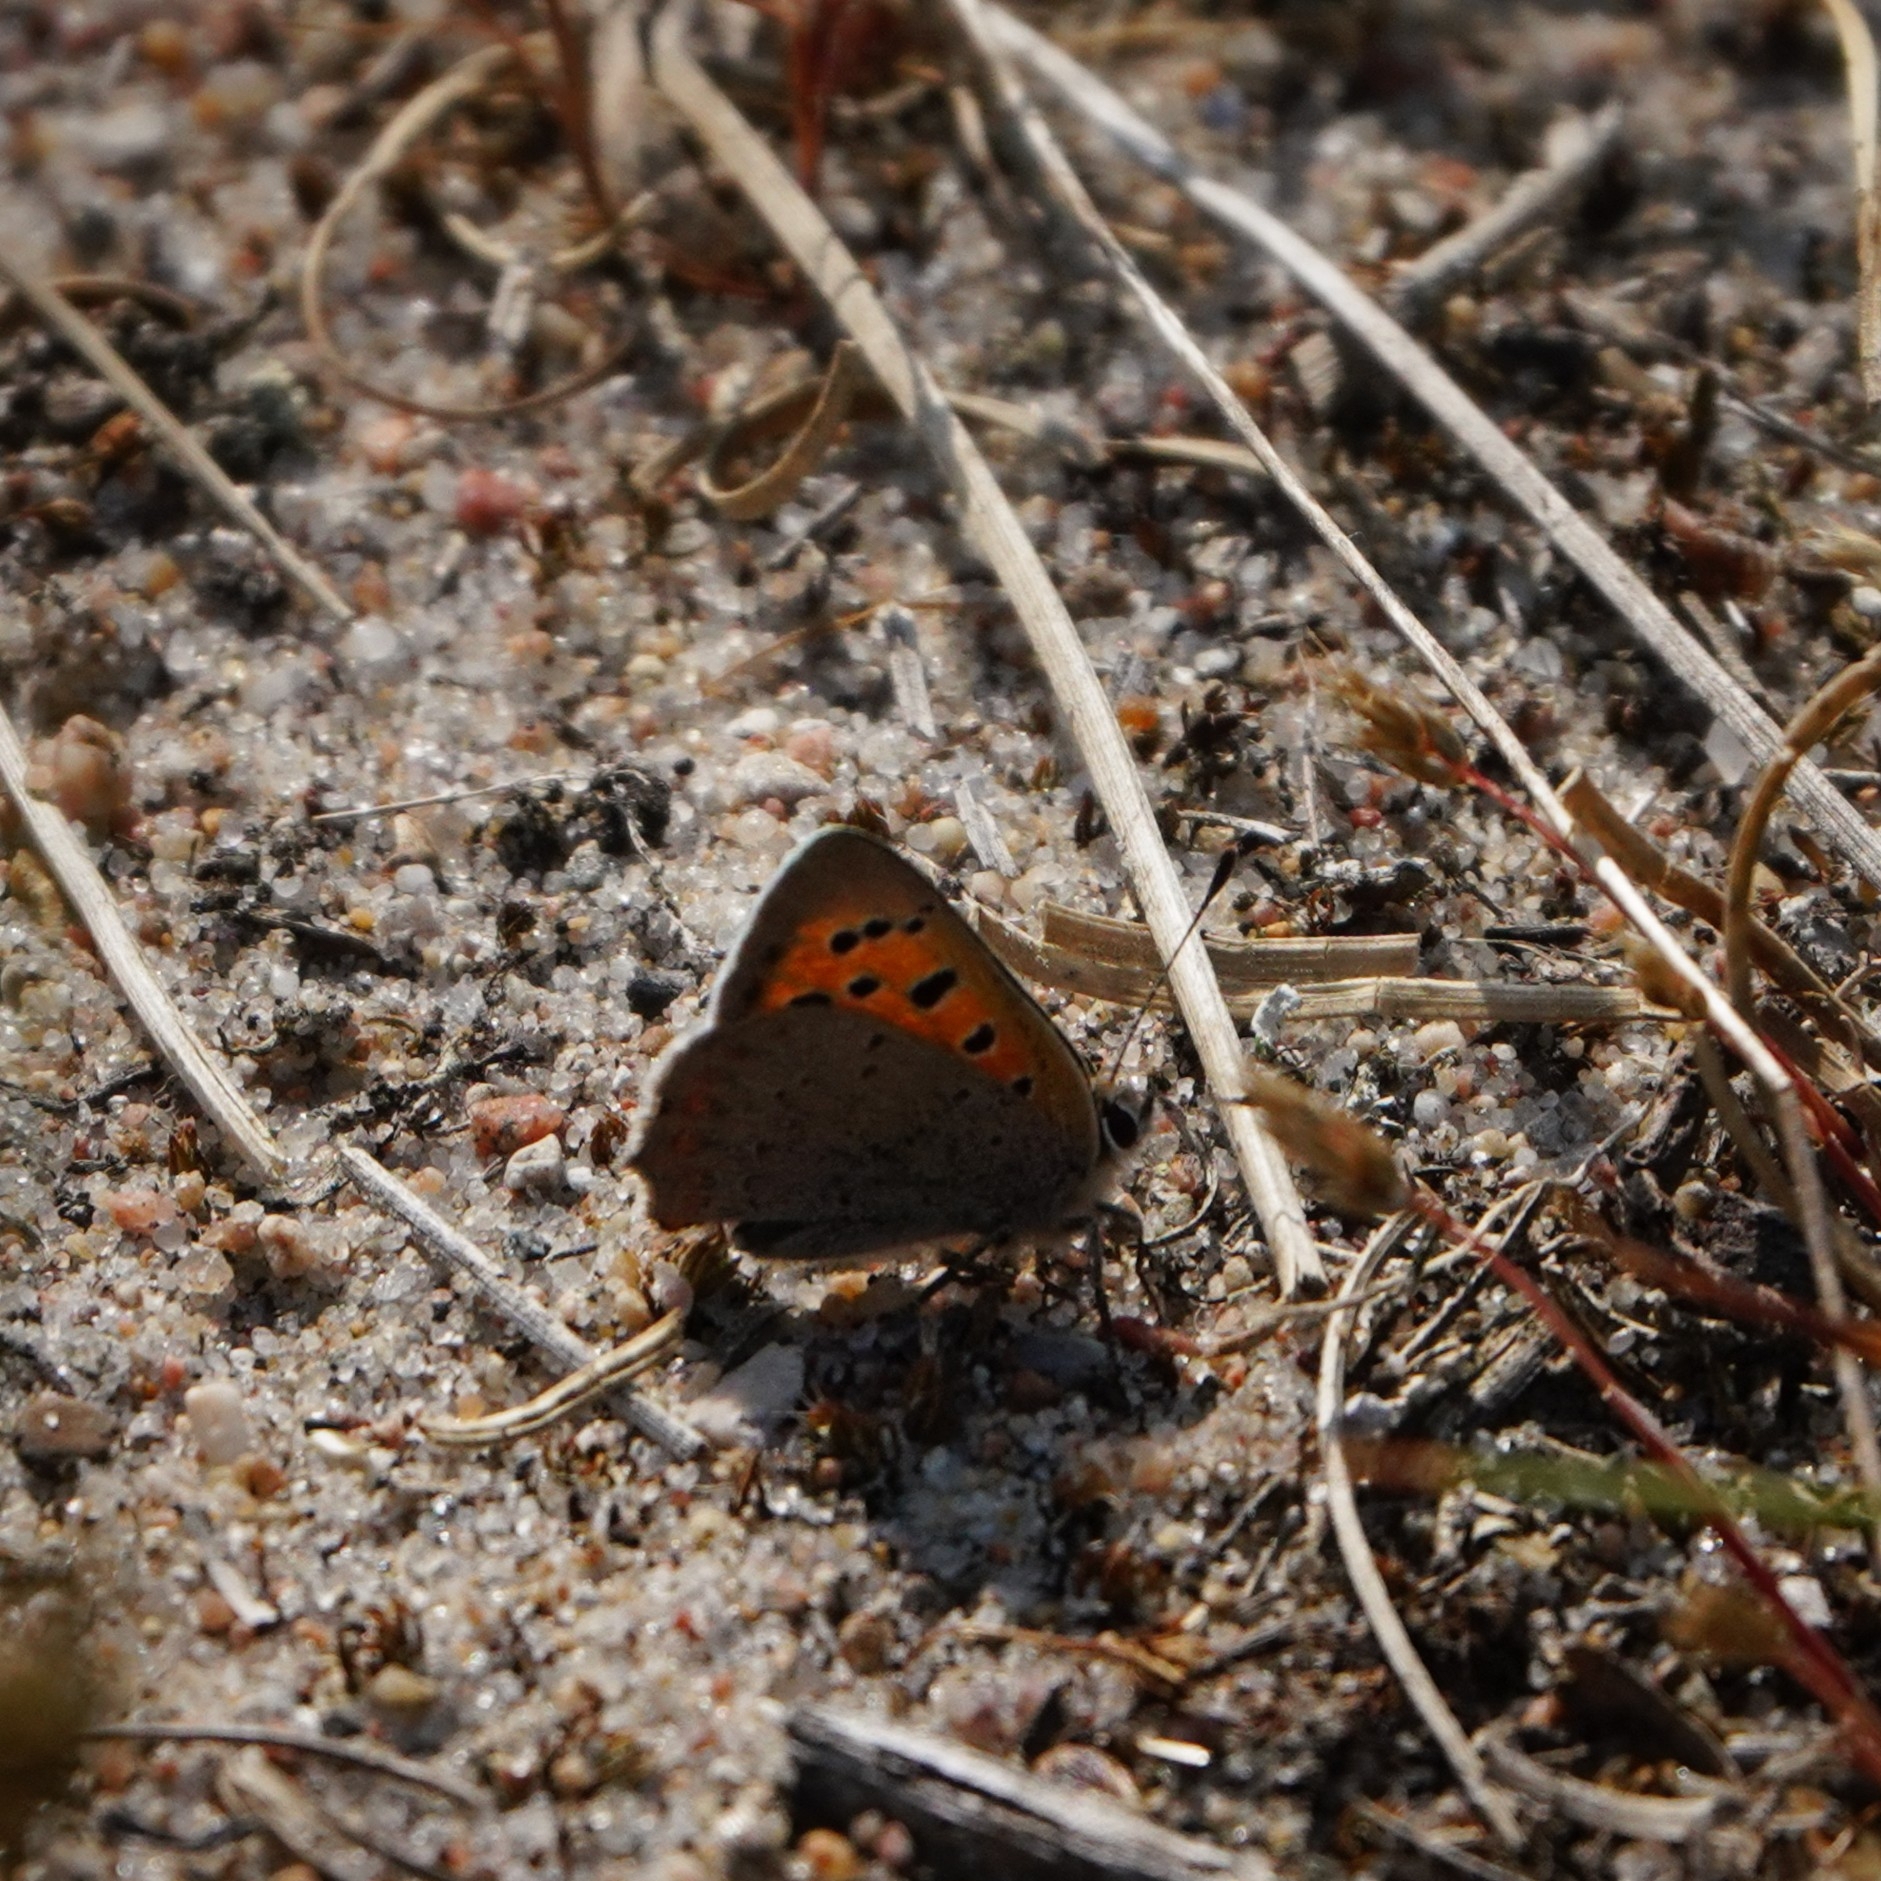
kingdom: Animalia
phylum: Arthropoda
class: Insecta
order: Lepidoptera
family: Lycaenidae
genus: Lycaena
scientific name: Lycaena phlaeas
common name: Small copper
